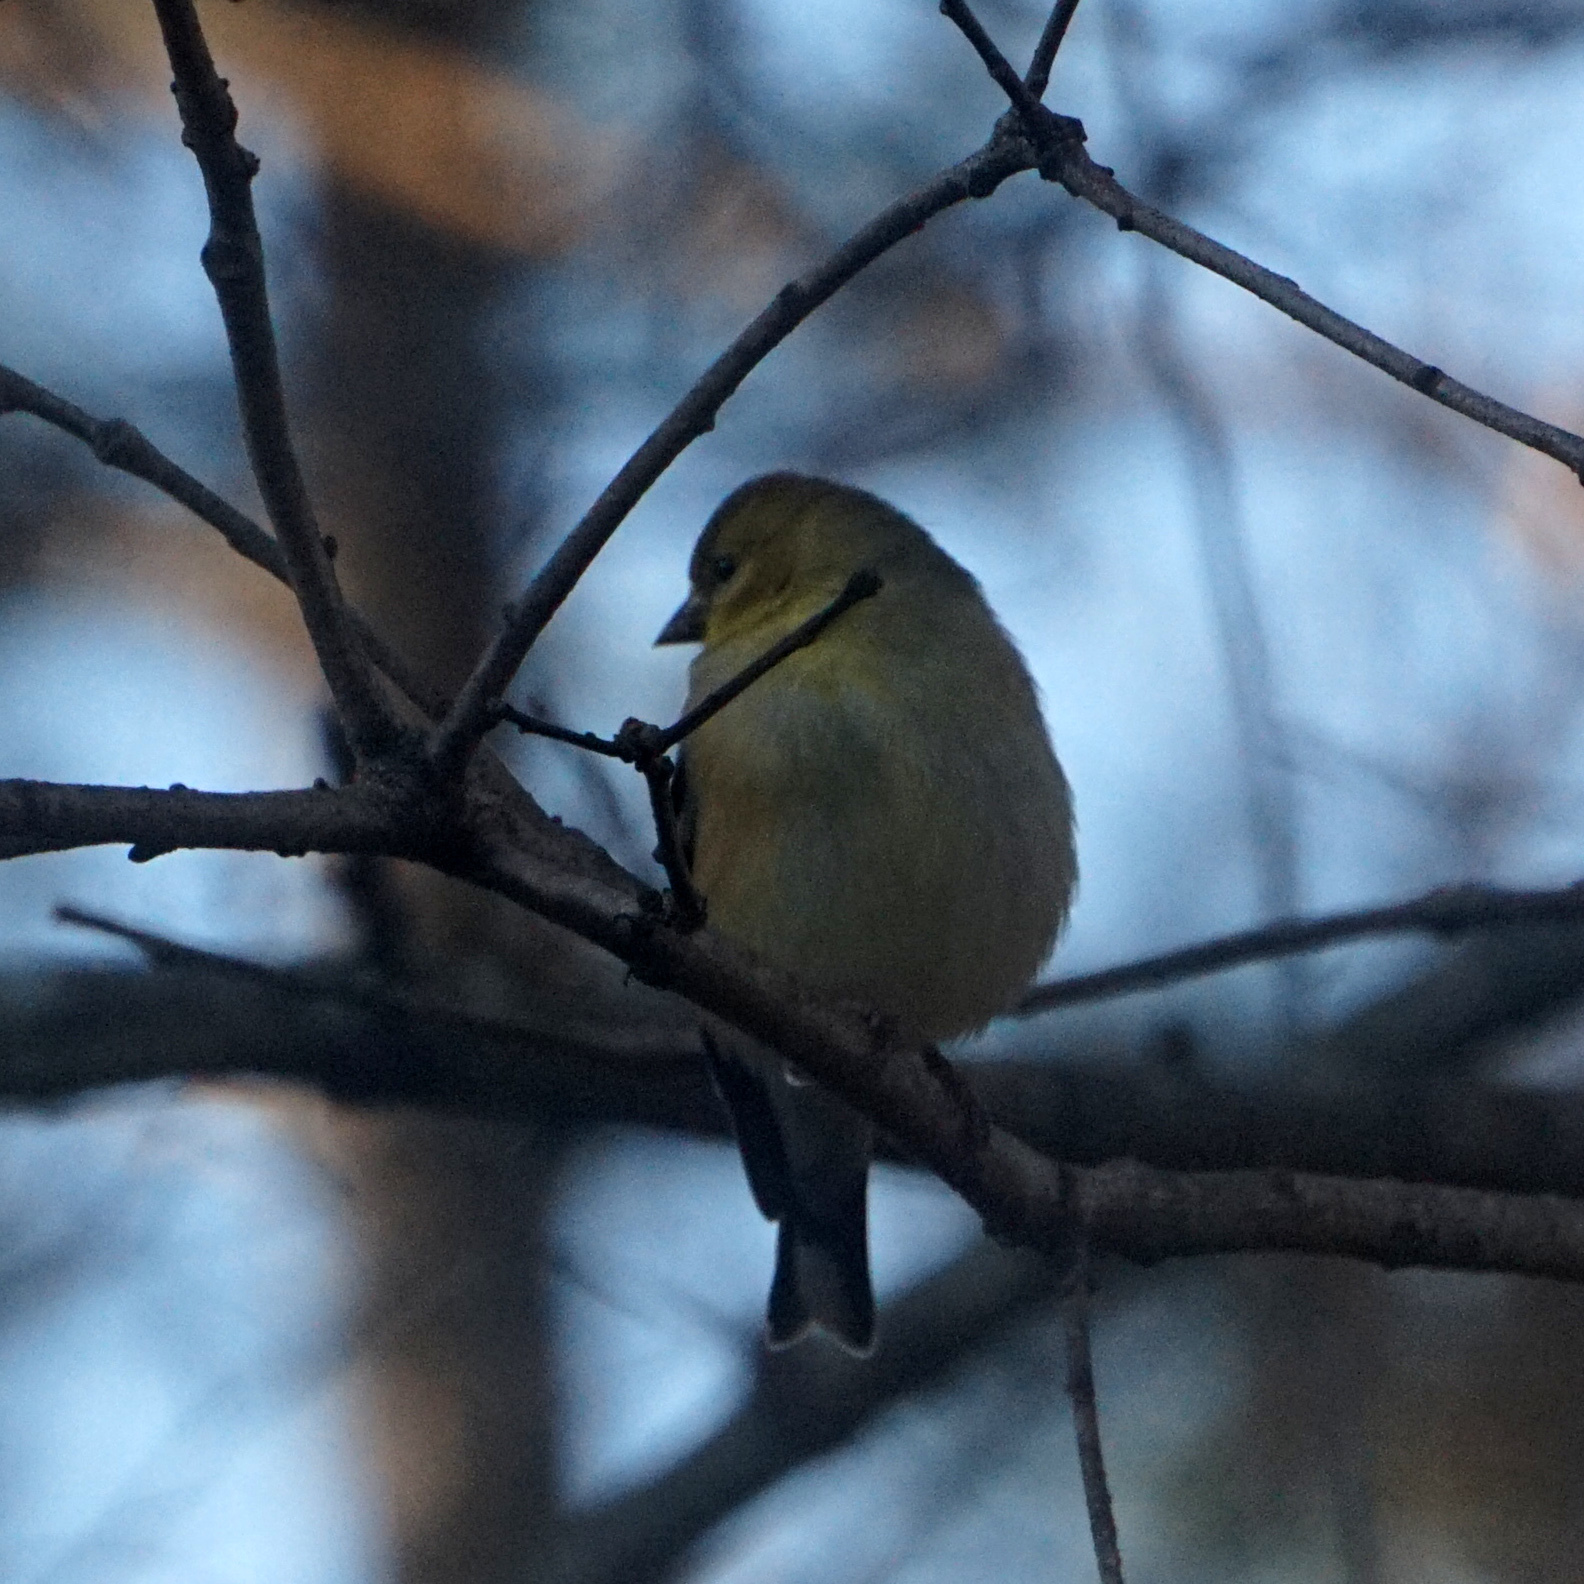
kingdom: Animalia
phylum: Chordata
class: Aves
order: Passeriformes
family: Fringillidae
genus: Spinus
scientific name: Spinus tristis
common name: American goldfinch
